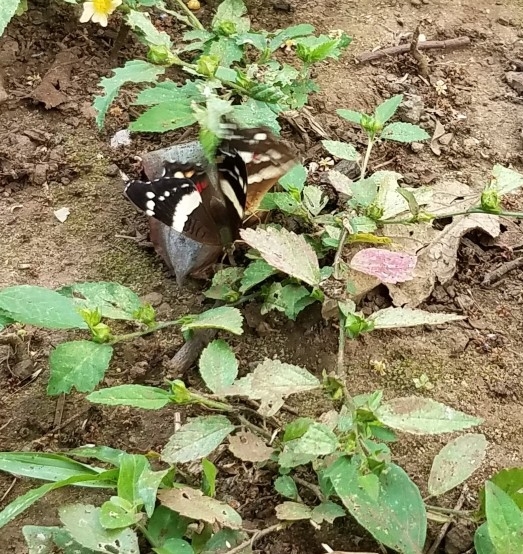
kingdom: Animalia
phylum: Arthropoda
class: Insecta
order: Lepidoptera
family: Nymphalidae
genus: Anartia
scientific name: Anartia fatima
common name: Banded peacock
